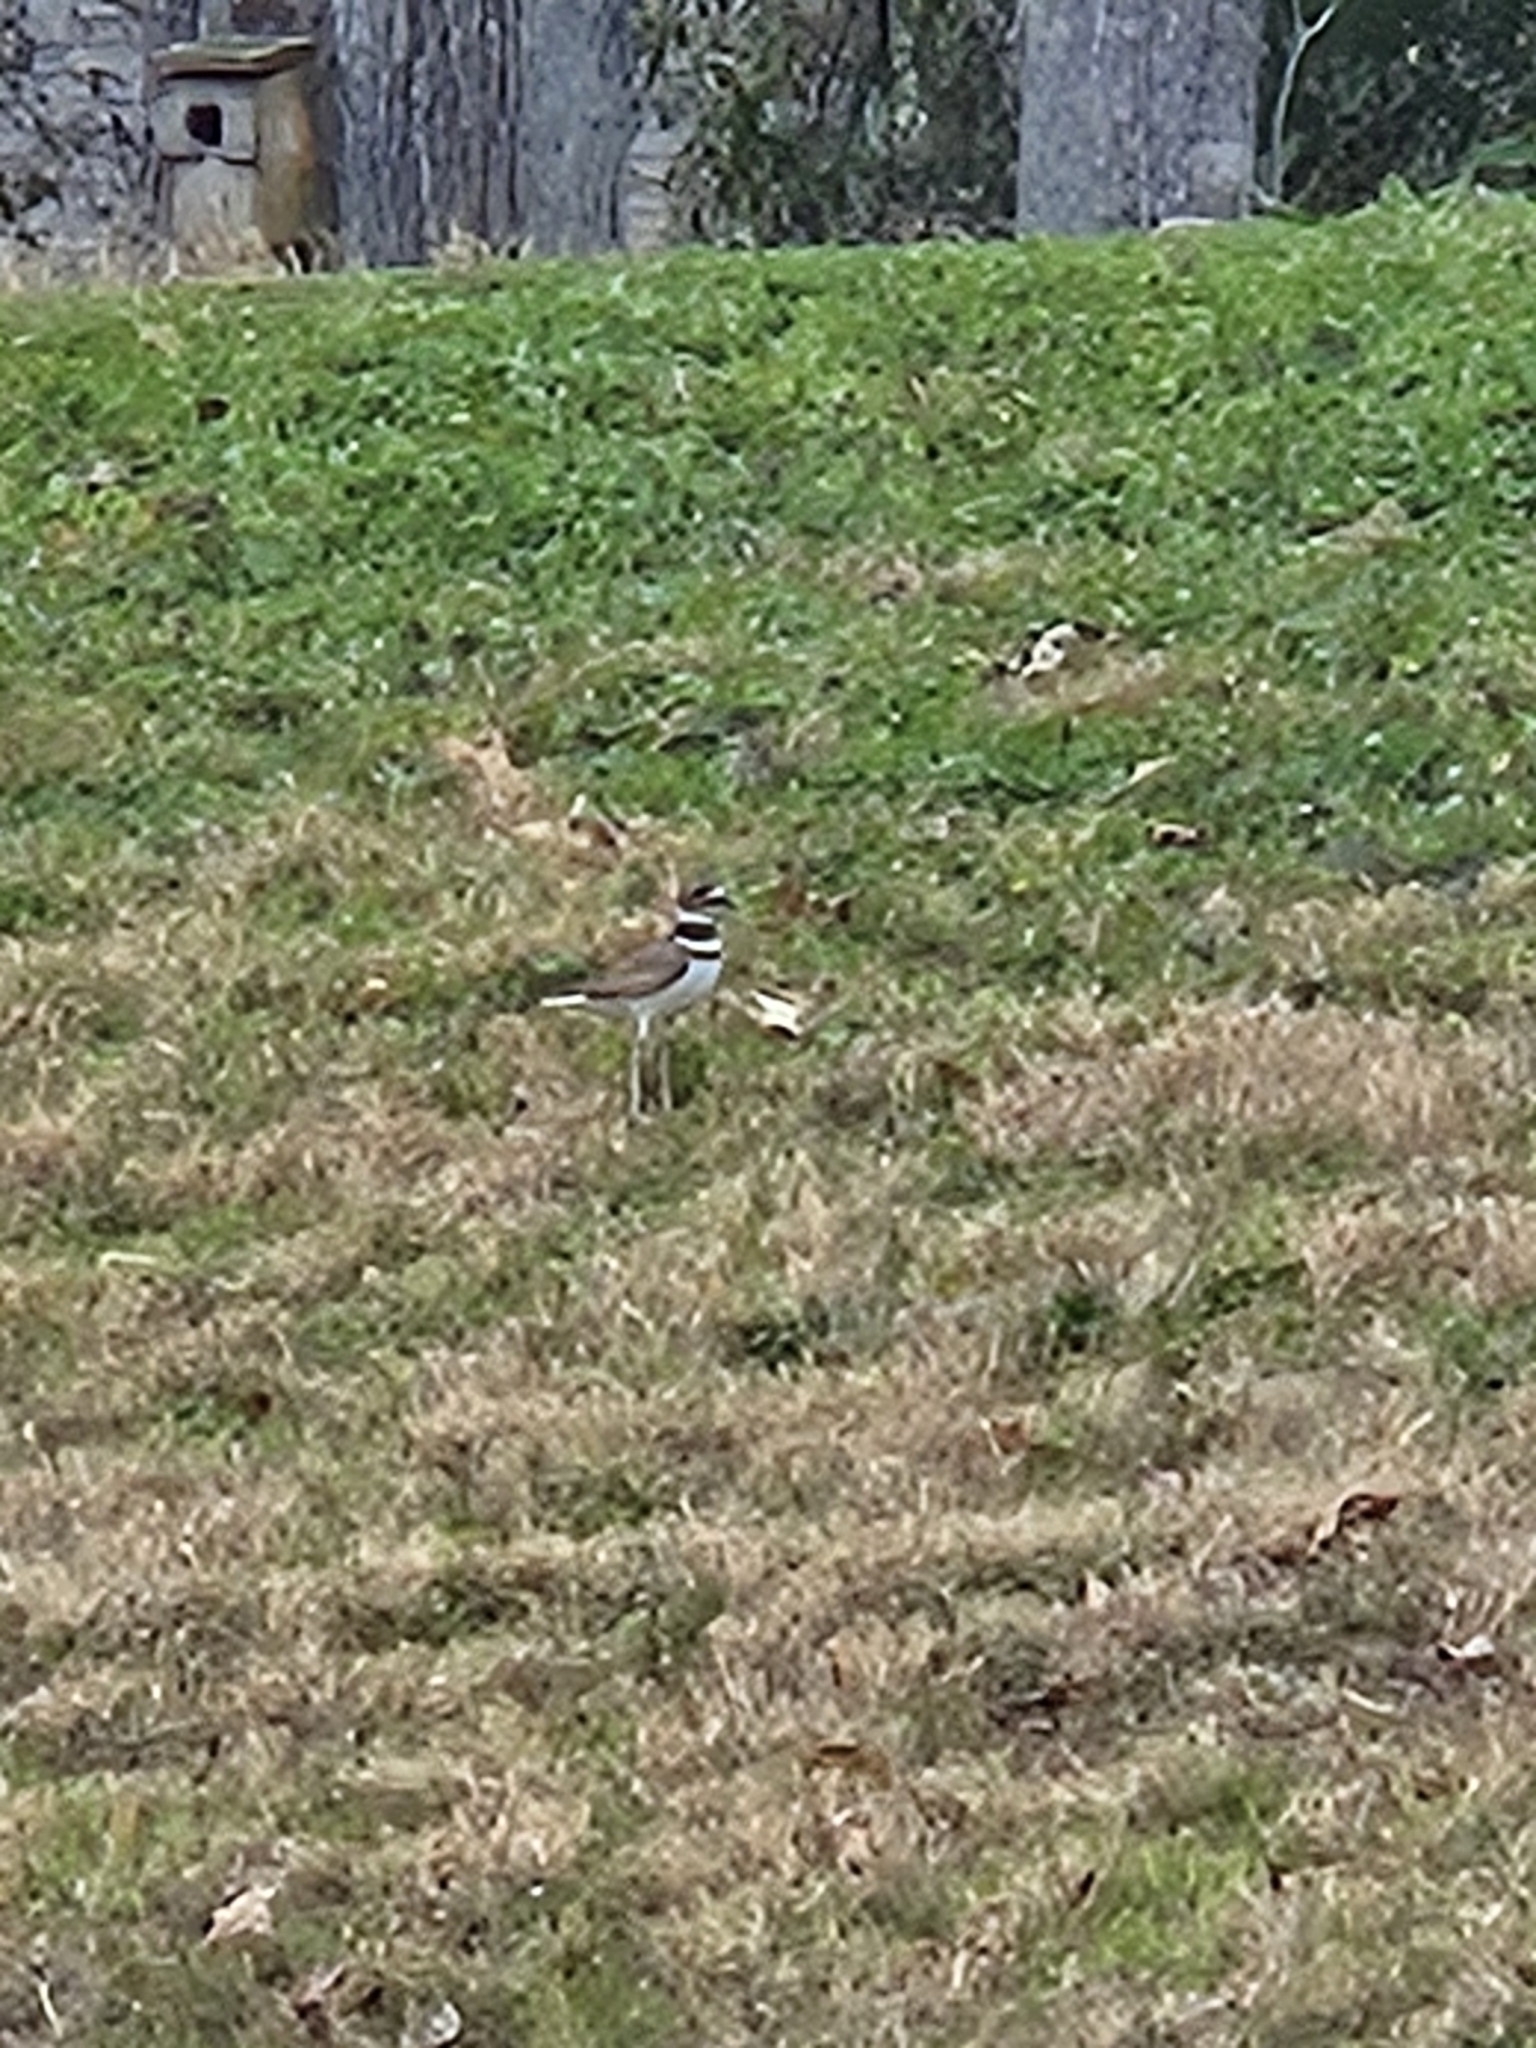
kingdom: Animalia
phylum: Chordata
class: Aves
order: Charadriiformes
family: Charadriidae
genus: Charadrius
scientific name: Charadrius vociferus
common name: Killdeer
